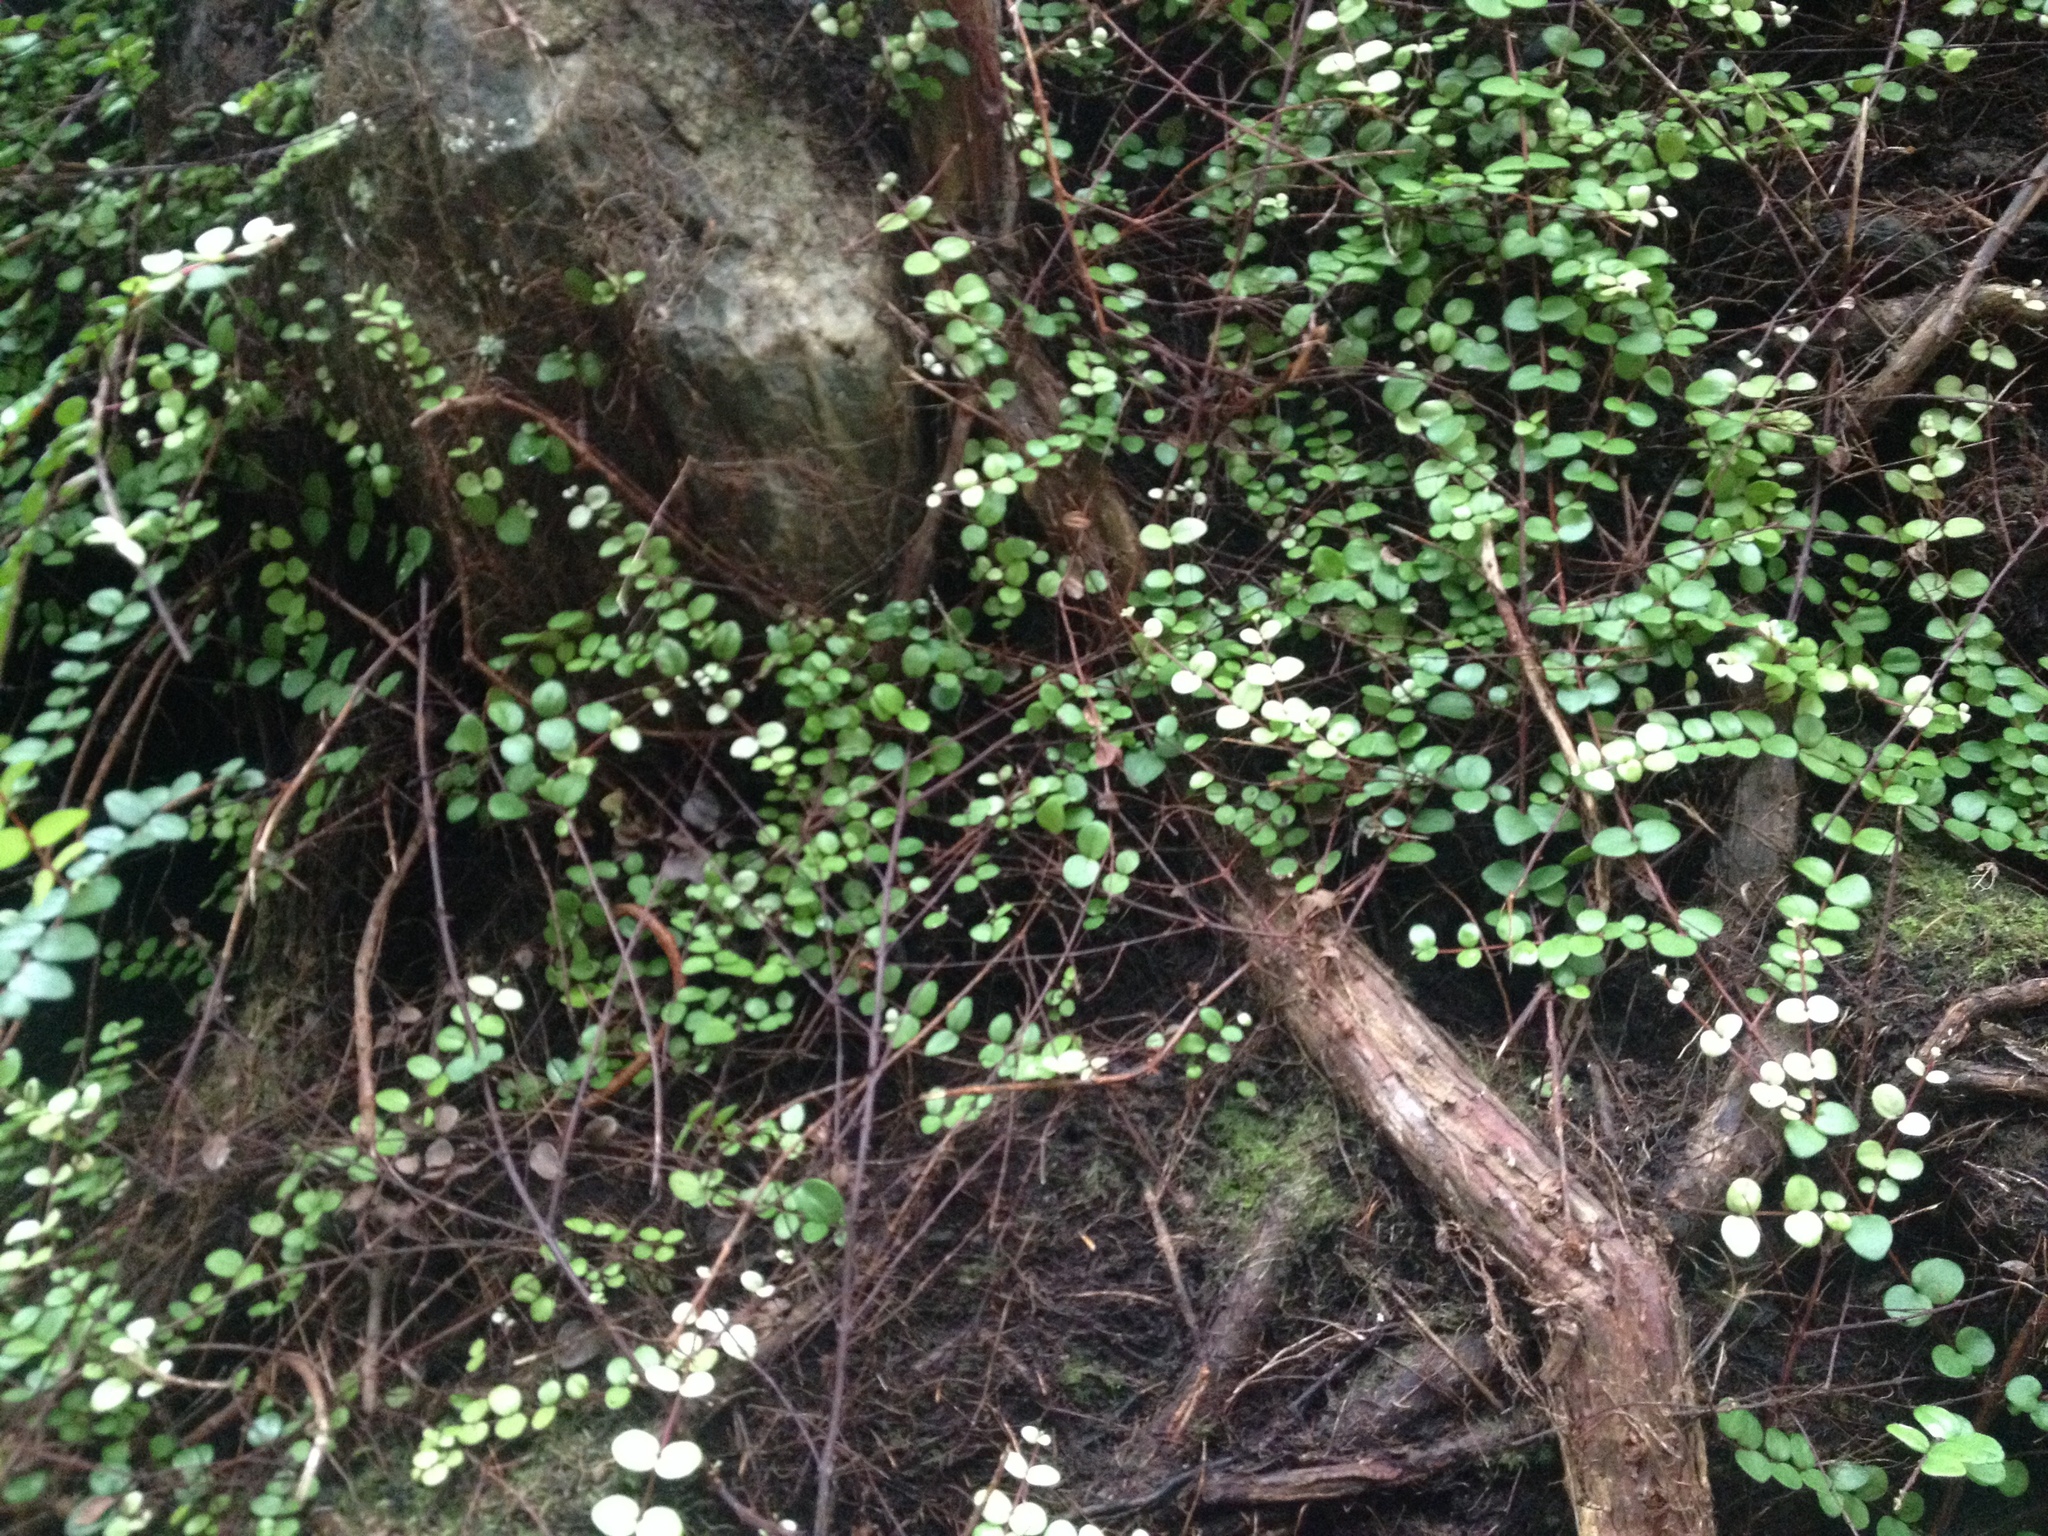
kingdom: Plantae
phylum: Tracheophyta
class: Magnoliopsida
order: Myrtales
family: Myrtaceae
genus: Metrosideros
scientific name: Metrosideros perforata
